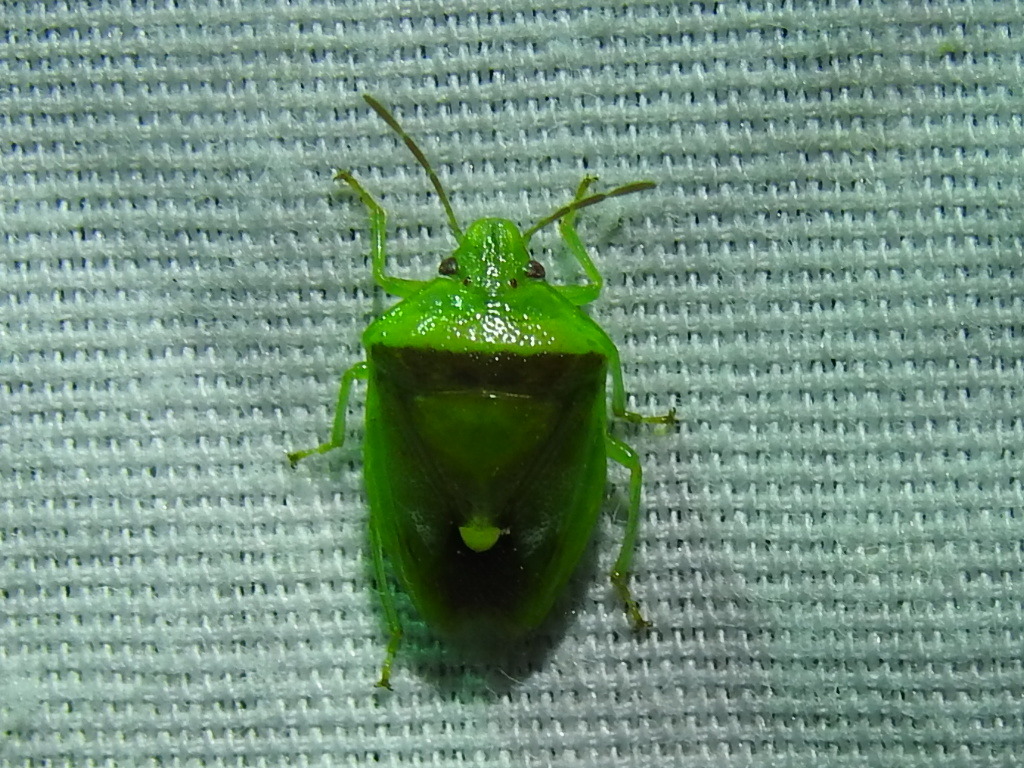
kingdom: Animalia
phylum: Arthropoda
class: Insecta
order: Hemiptera
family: Pentatomidae
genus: Banasa
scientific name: Banasa dimidiata
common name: Green burgundy stink bug
